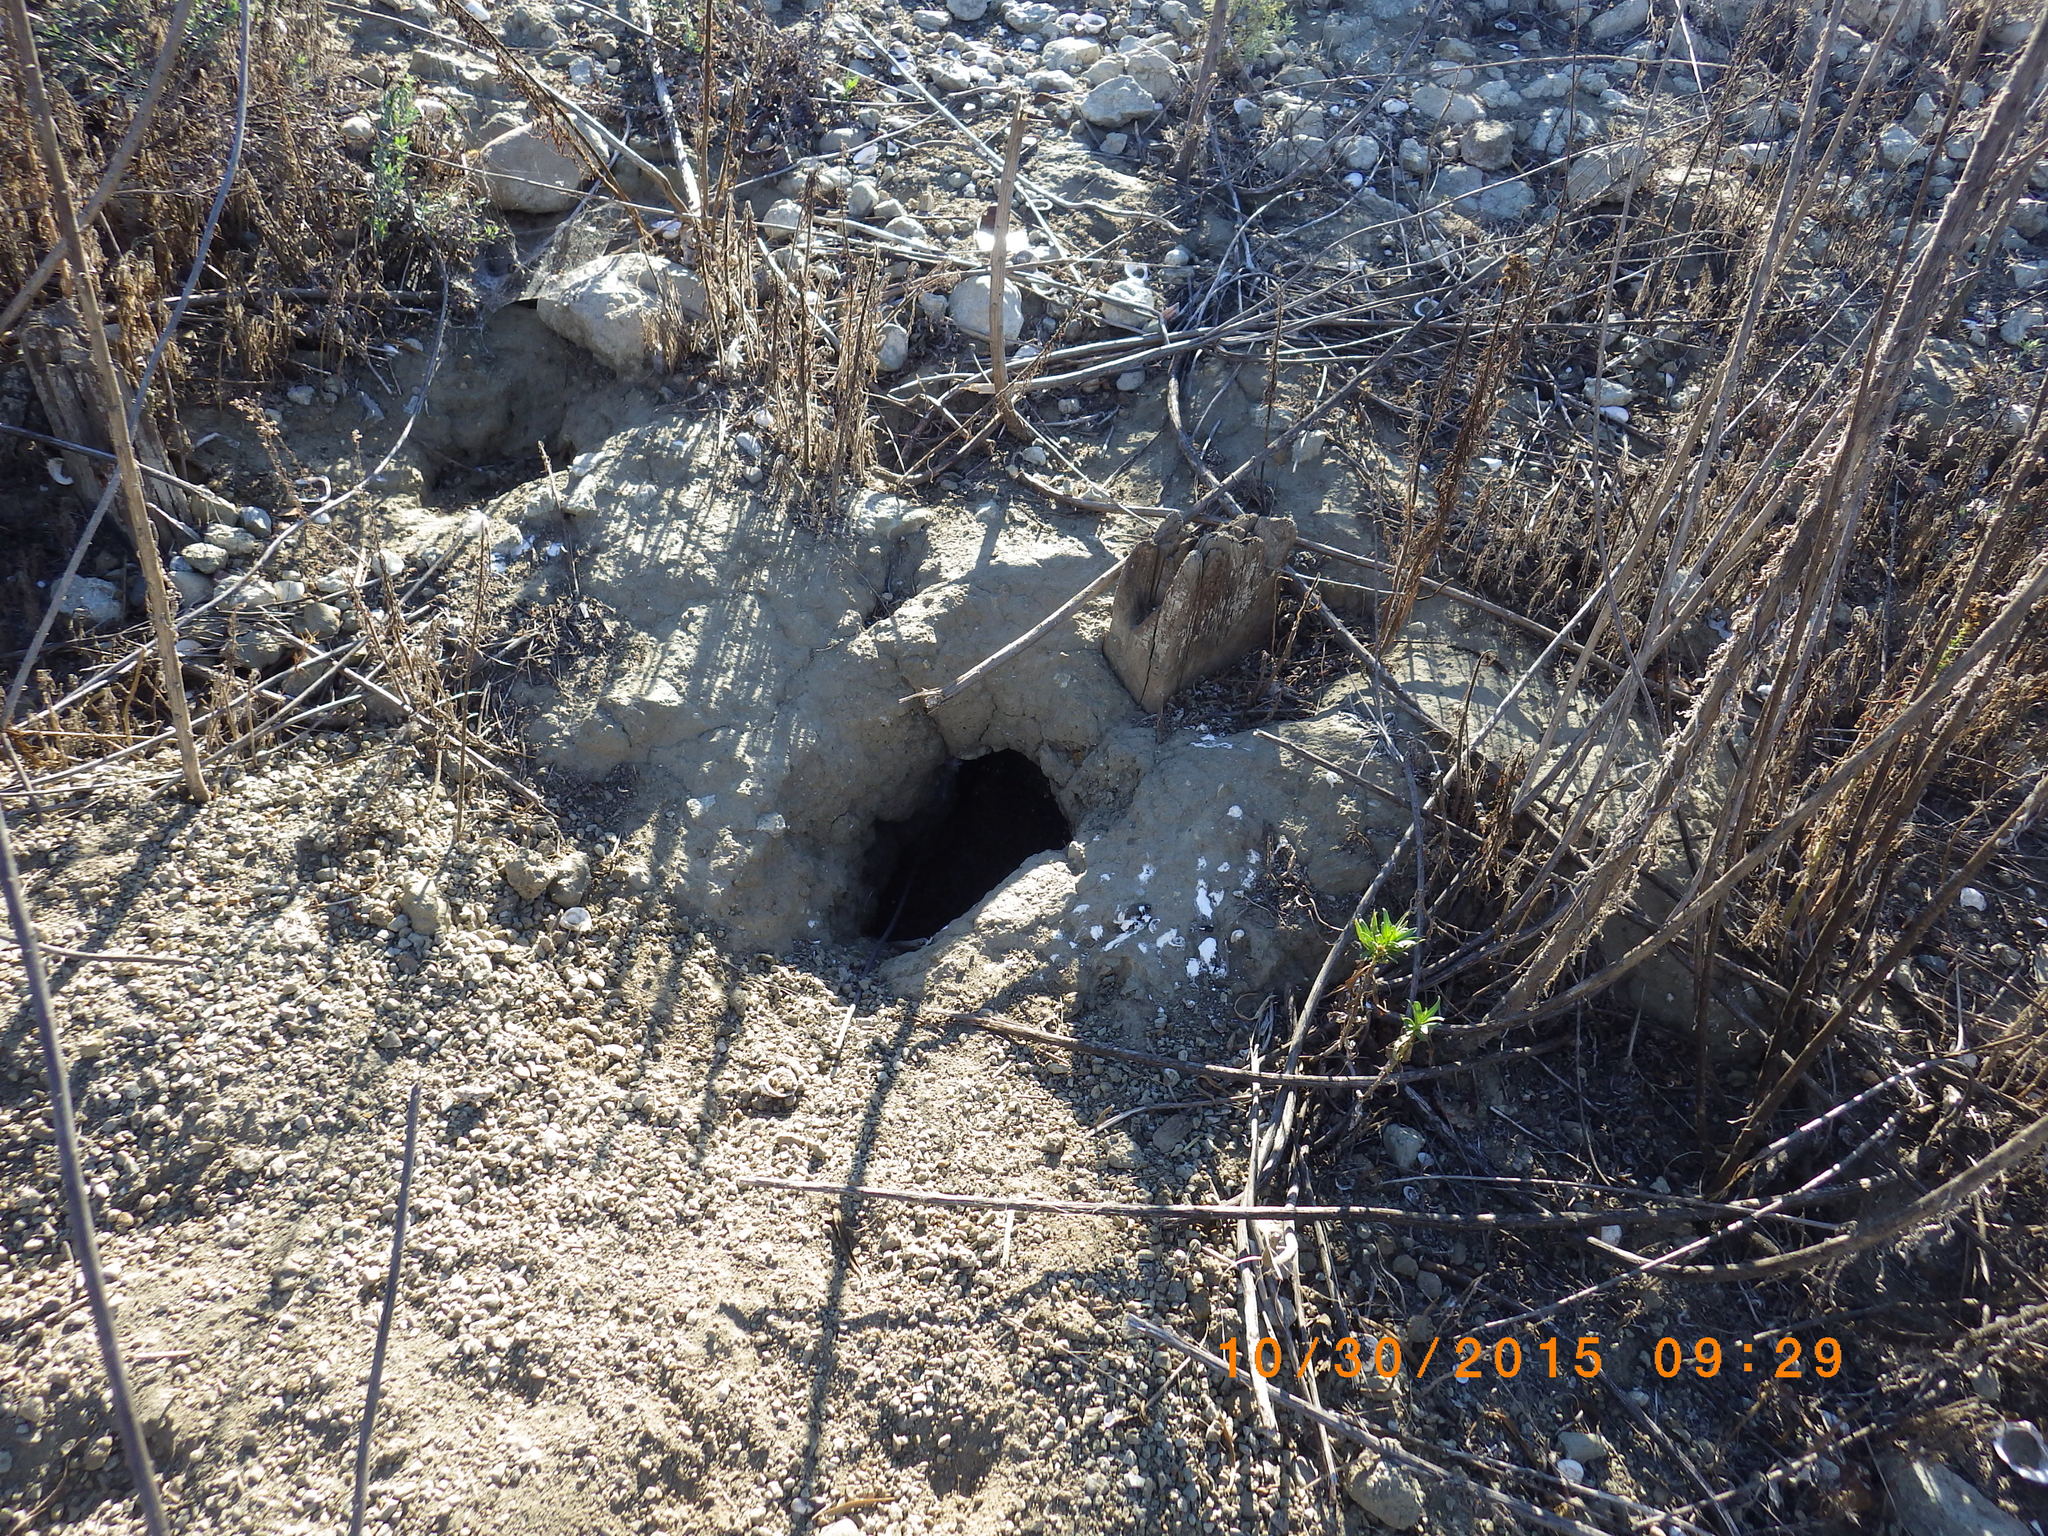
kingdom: Animalia
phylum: Chordata
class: Aves
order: Strigiformes
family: Strigidae
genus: Athene
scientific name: Athene cunicularia
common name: Burrowing owl
